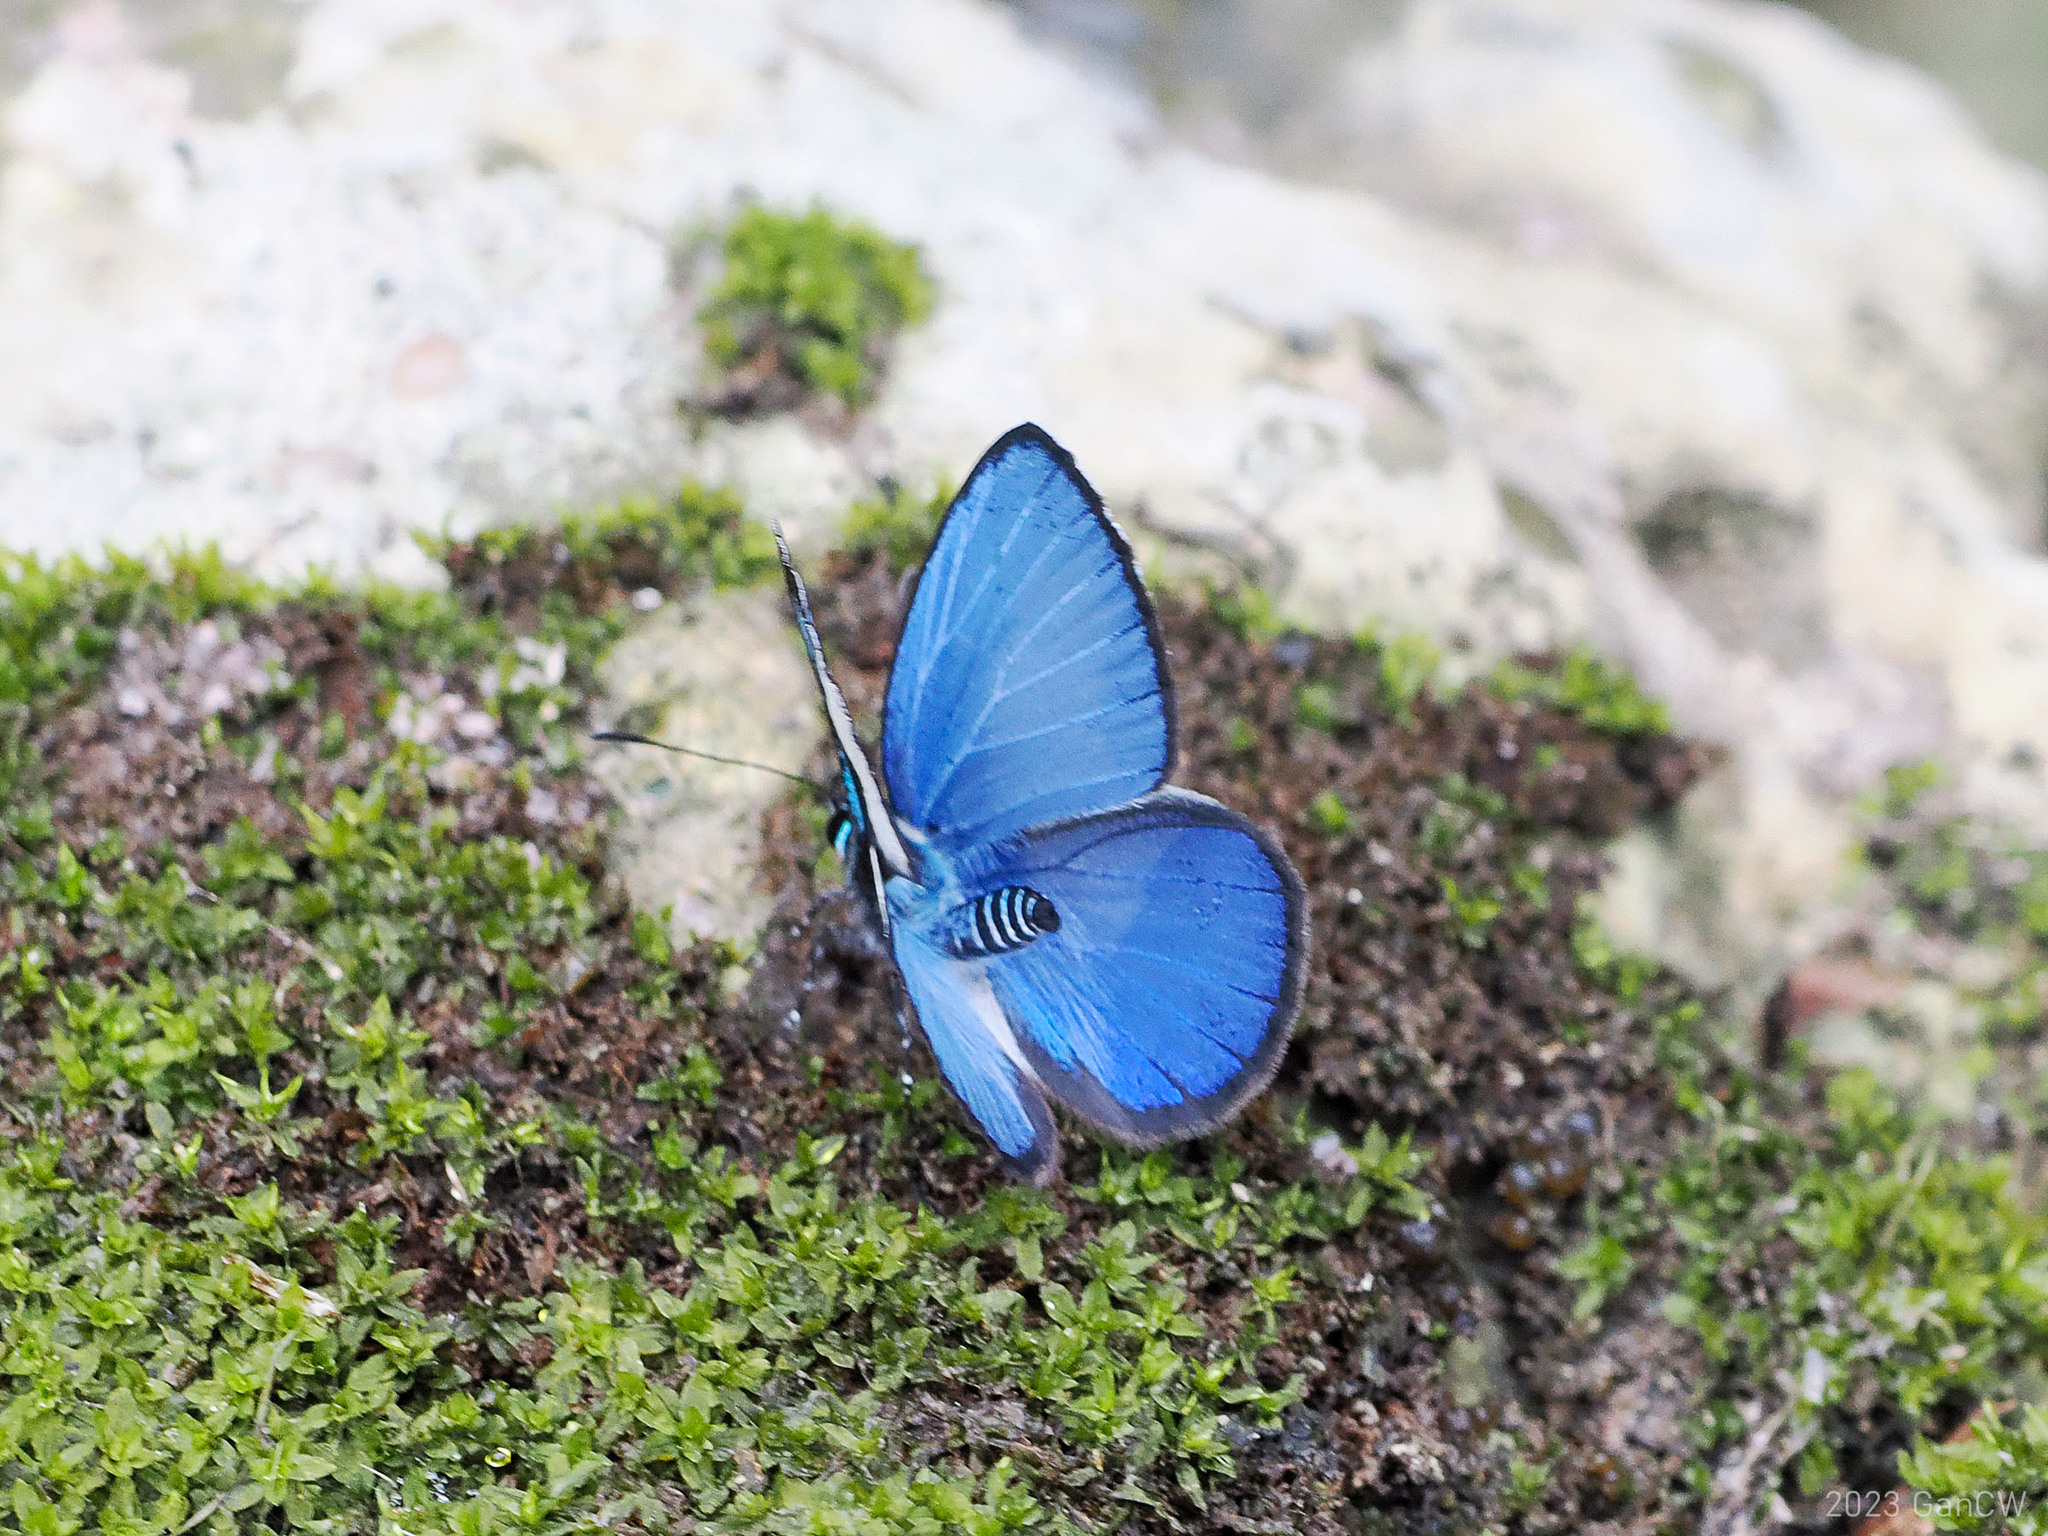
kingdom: Animalia
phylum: Arthropoda
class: Insecta
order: Lepidoptera
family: Lycaenidae
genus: Psychonotis
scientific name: Psychonotis caelius
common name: Small green banded blue
